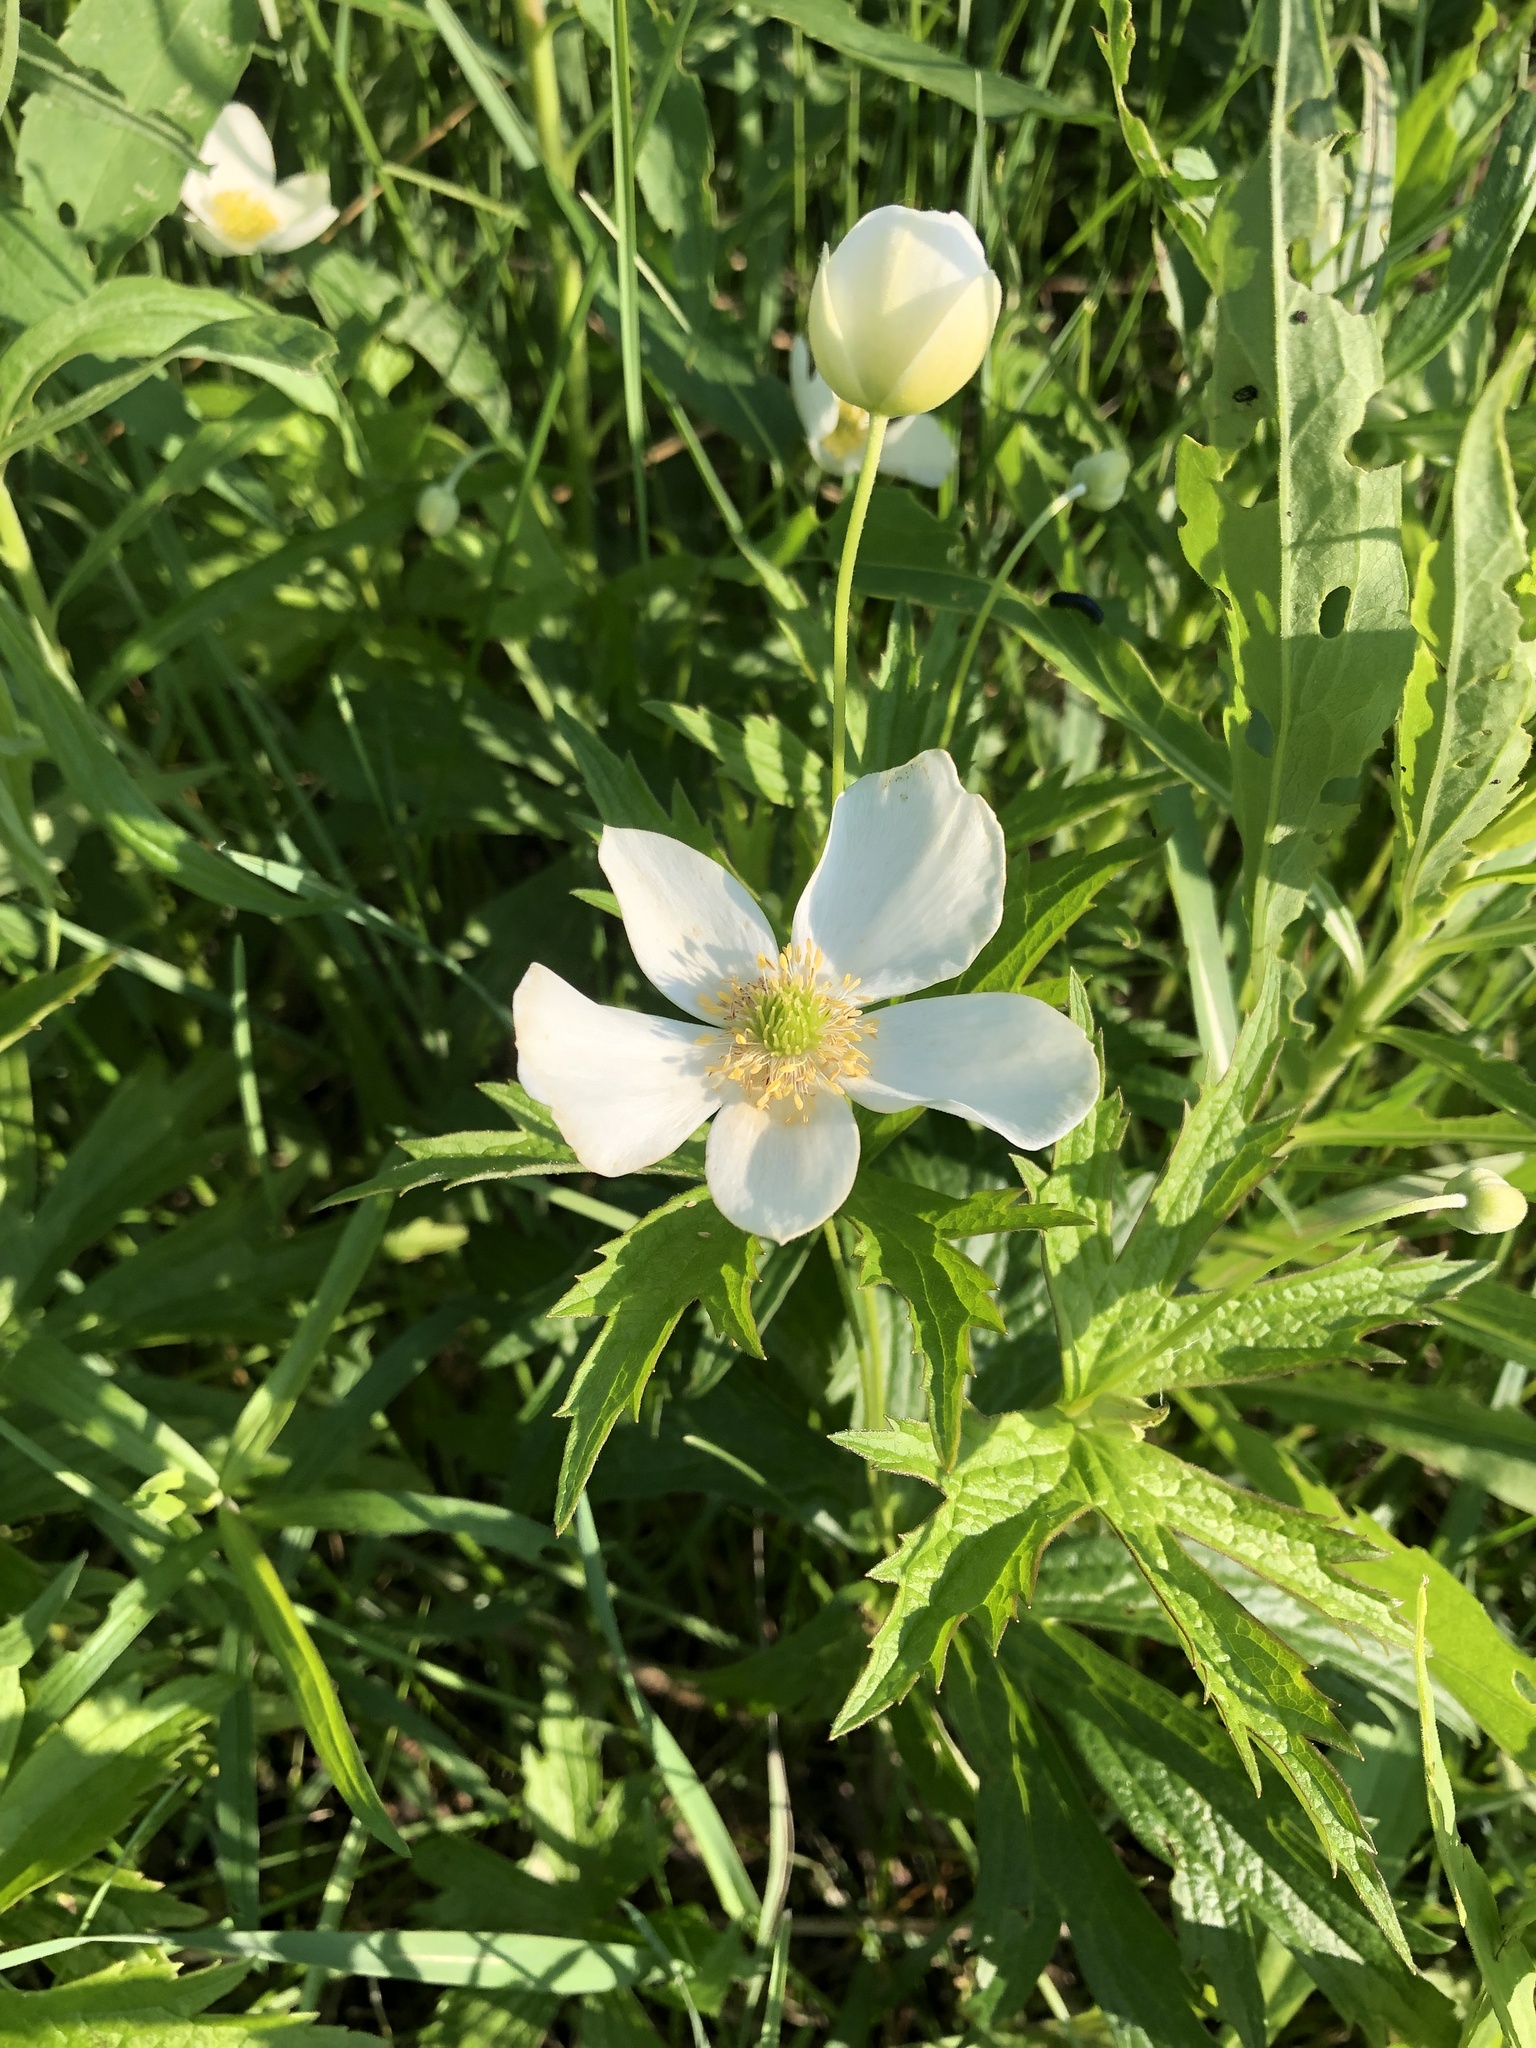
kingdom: Plantae
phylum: Tracheophyta
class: Magnoliopsida
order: Ranunculales
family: Ranunculaceae
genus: Anemonastrum
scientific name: Anemonastrum canadense
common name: Canada anemone
